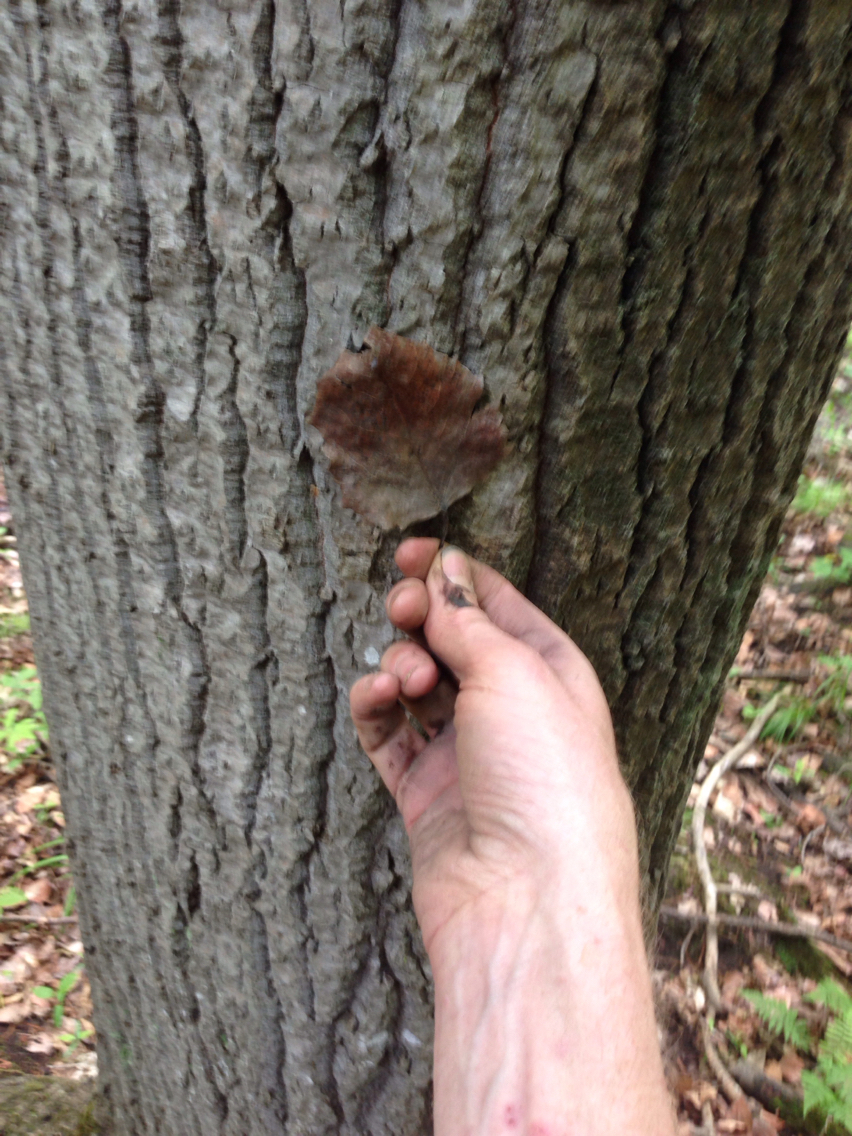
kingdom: Plantae
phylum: Tracheophyta
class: Magnoliopsida
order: Malpighiales
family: Salicaceae
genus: Populus
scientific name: Populus grandidentata
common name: Bigtooth aspen
